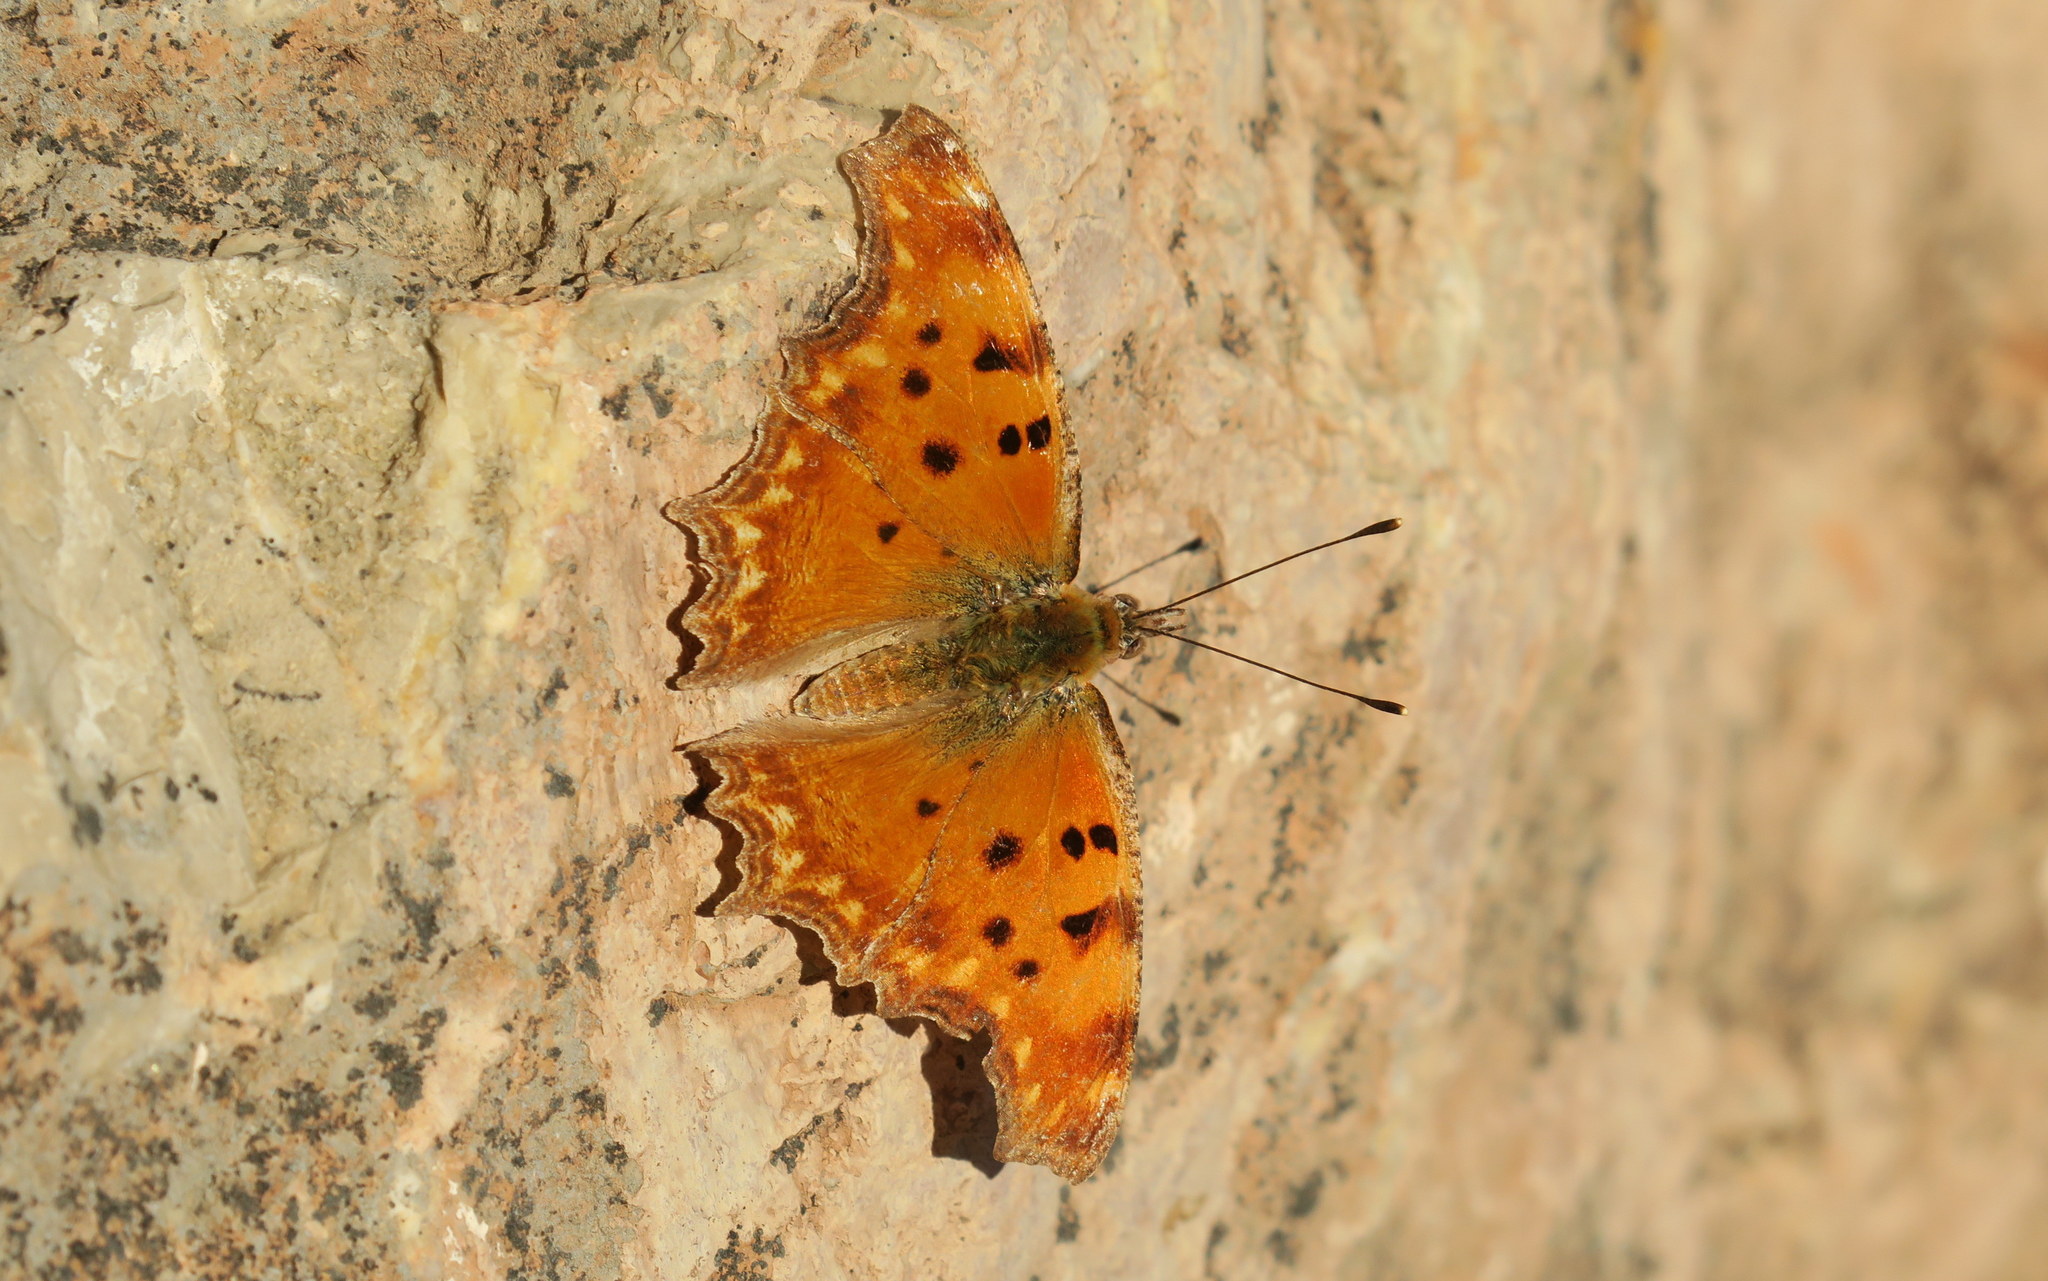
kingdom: Animalia
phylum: Arthropoda
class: Insecta
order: Lepidoptera
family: Nymphalidae
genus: Polygonia
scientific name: Polygonia egea
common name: Southern comma
